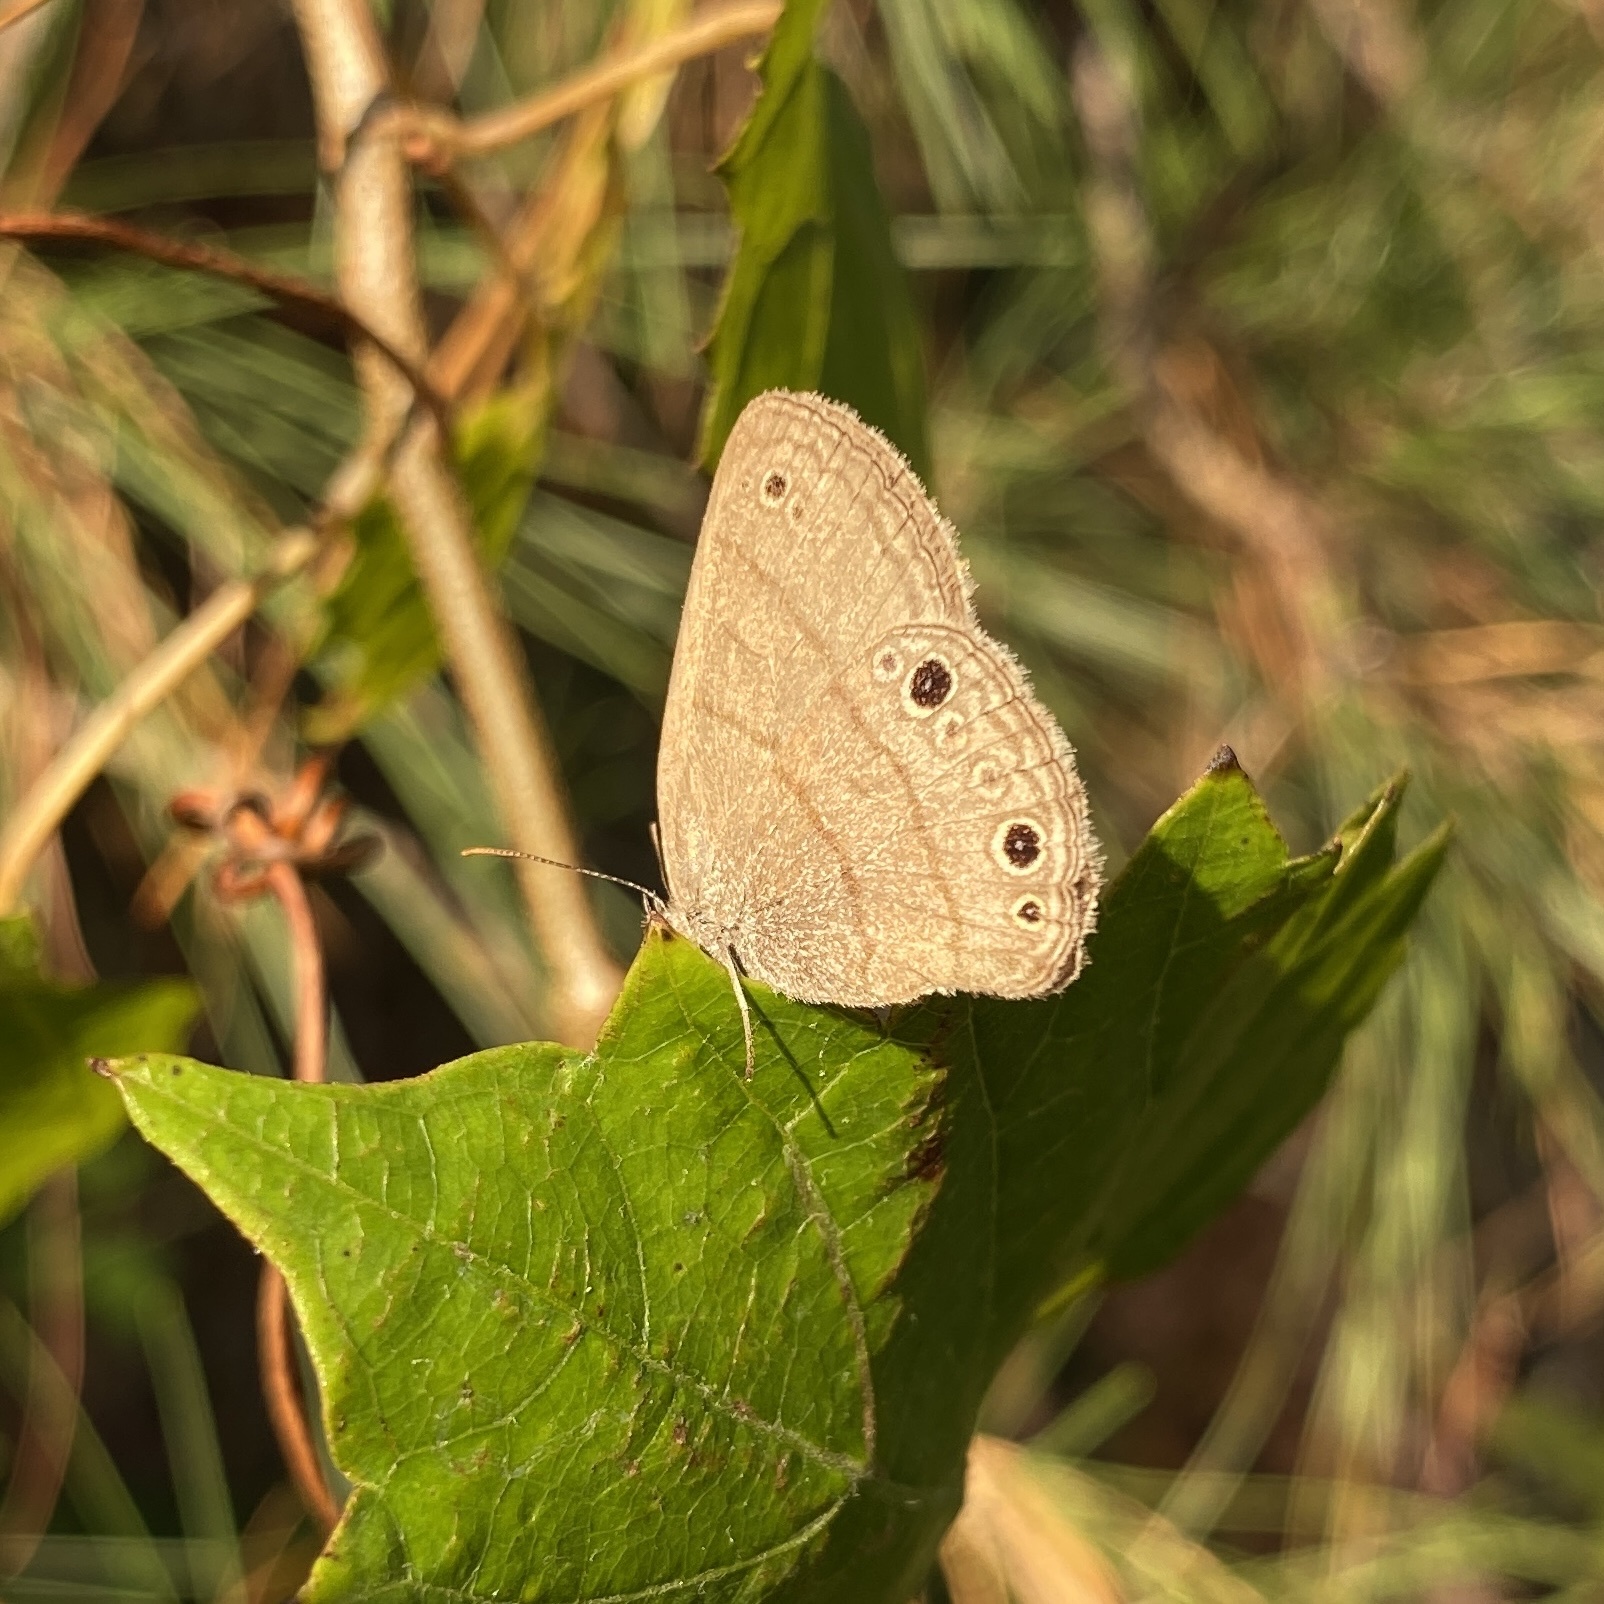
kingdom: Animalia
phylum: Arthropoda
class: Insecta
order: Lepidoptera
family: Nymphalidae
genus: Hermeuptychia
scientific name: Hermeuptychia hermes
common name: Hermes satyr
